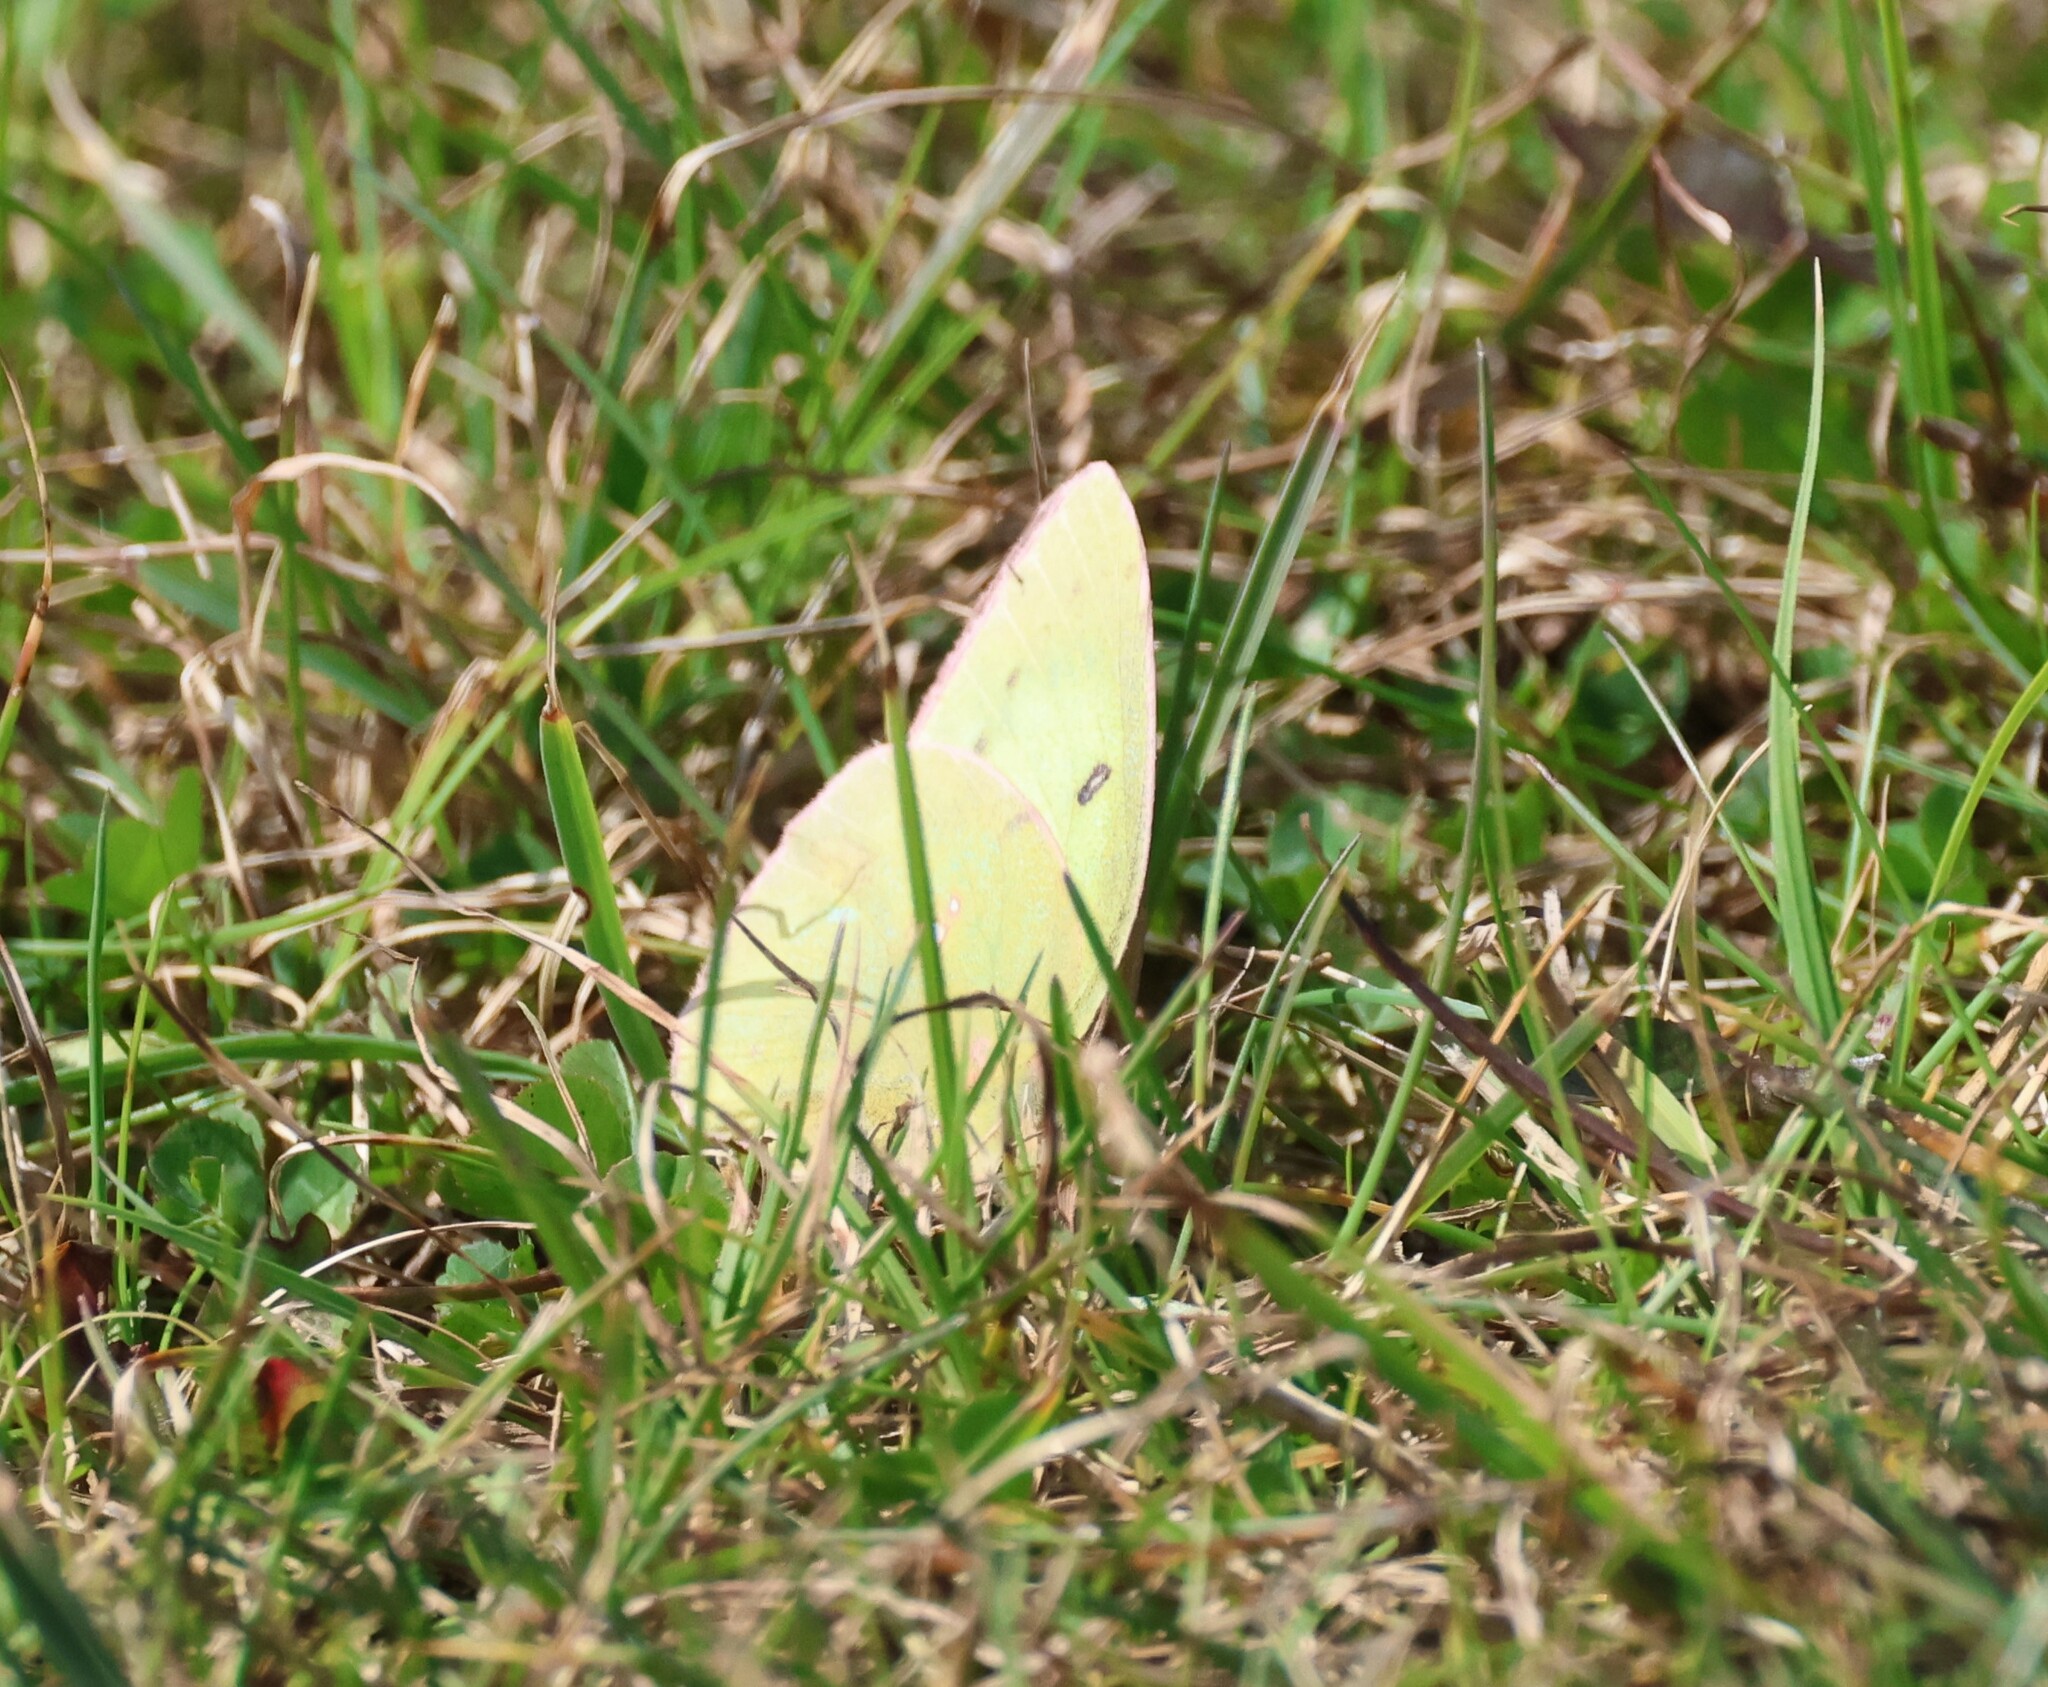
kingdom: Animalia
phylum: Arthropoda
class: Insecta
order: Lepidoptera
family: Pieridae
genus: Colias
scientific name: Colias philodice
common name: Clouded sulphur
